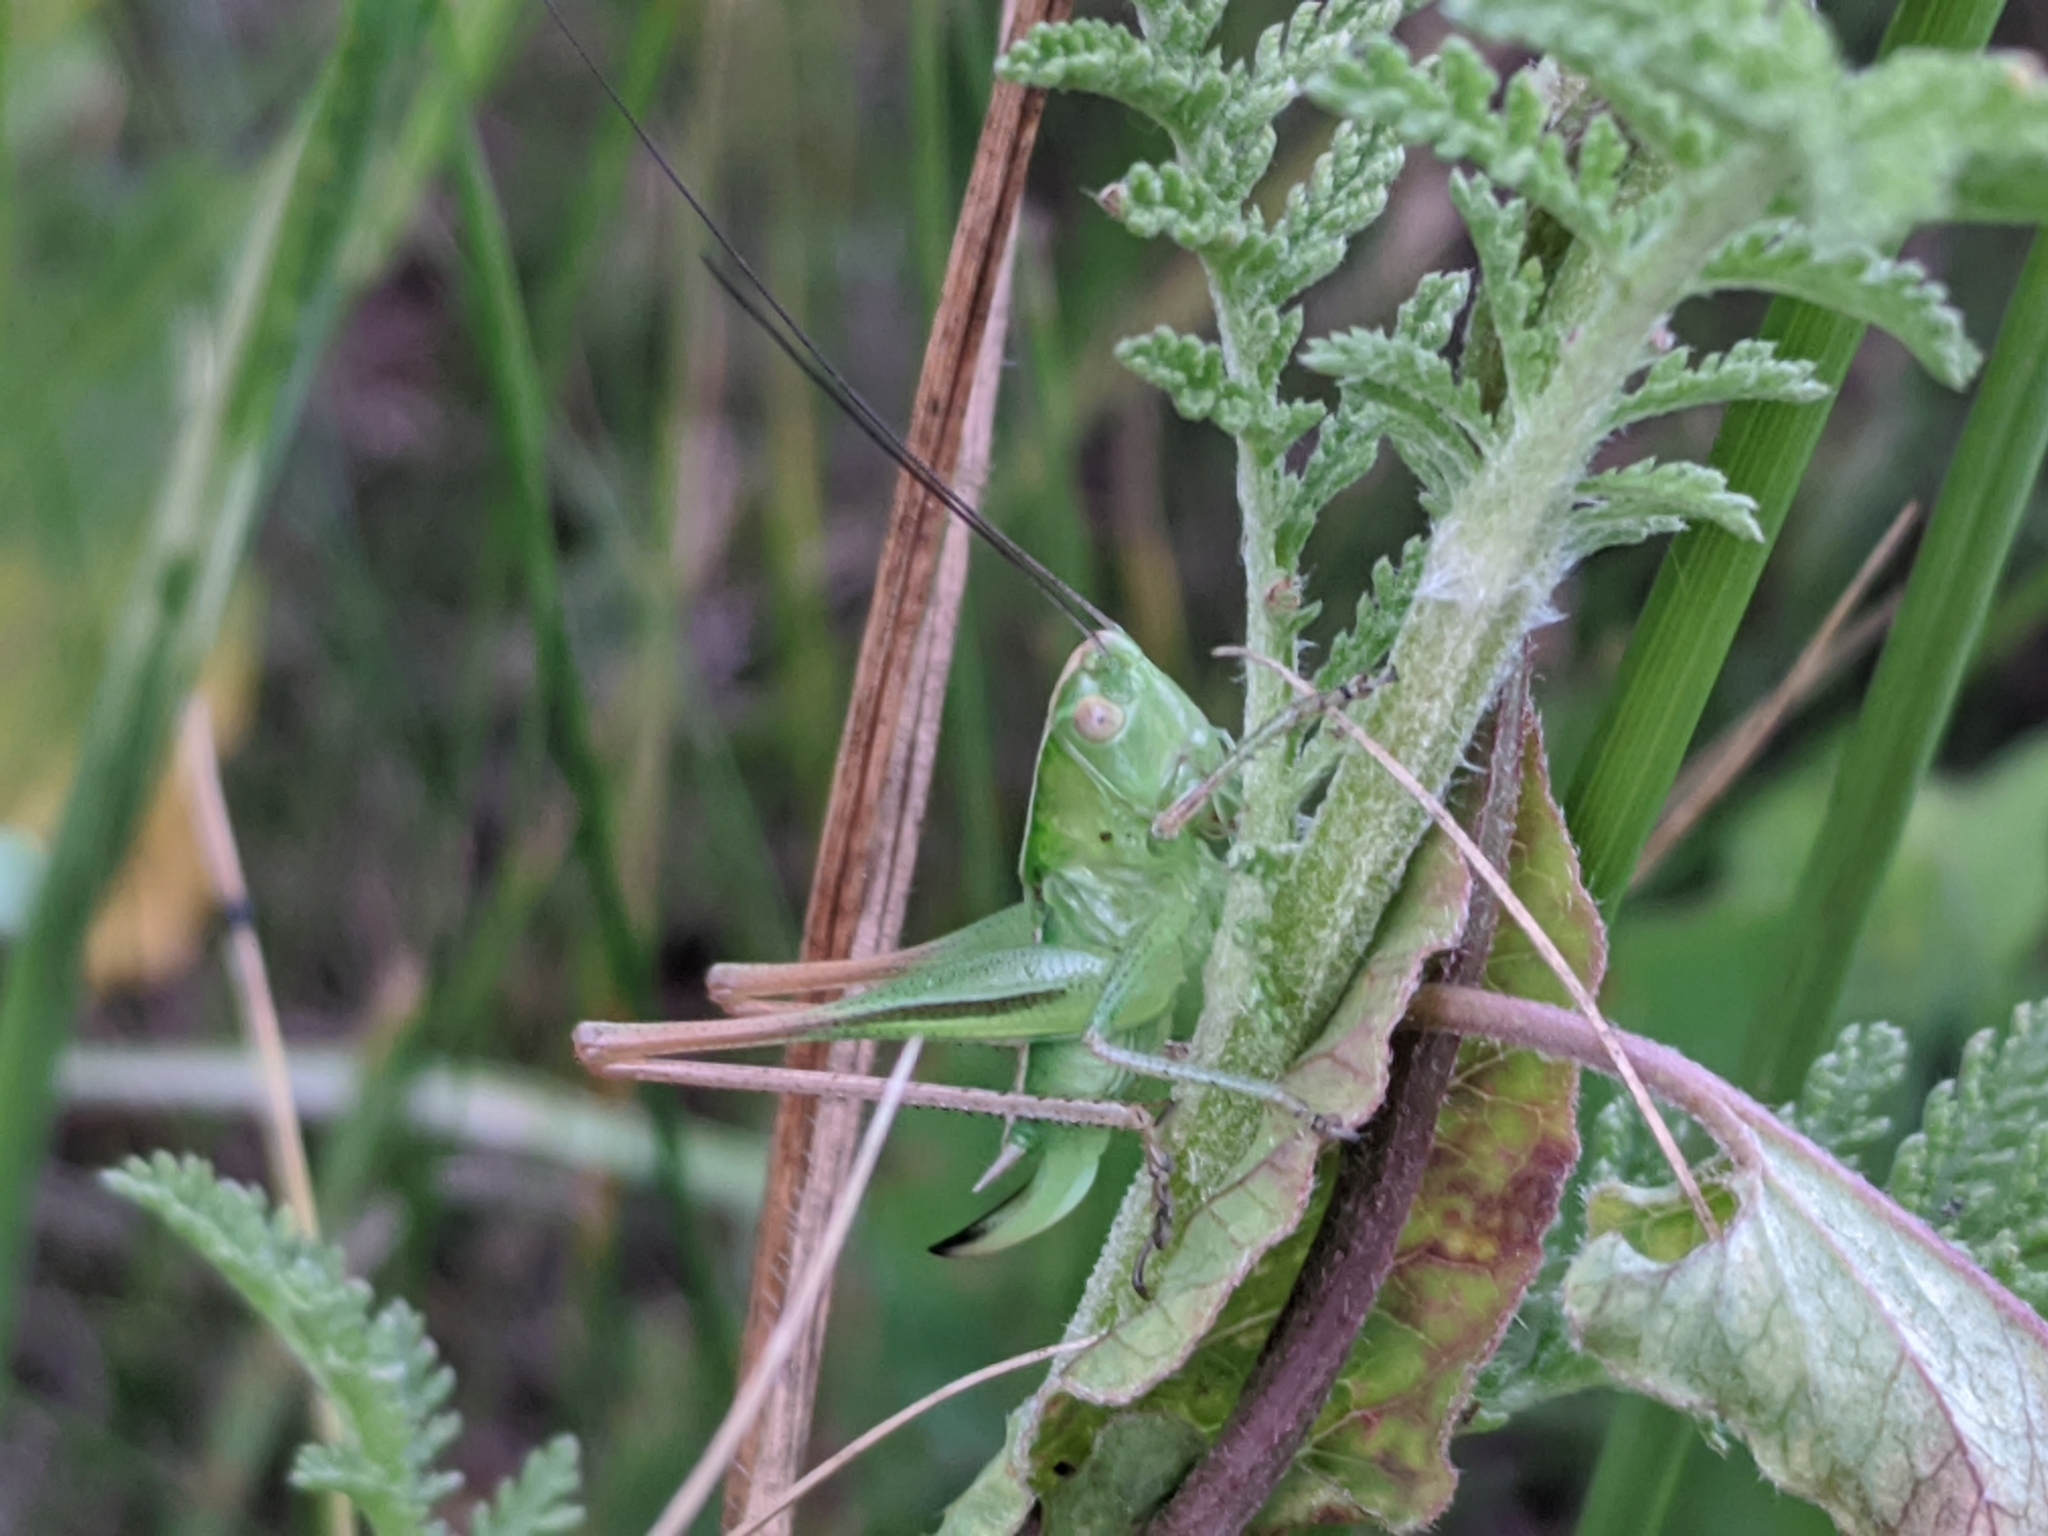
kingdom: Animalia
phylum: Arthropoda
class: Insecta
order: Orthoptera
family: Tettigoniidae
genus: Bicolorana
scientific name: Bicolorana bicolor
